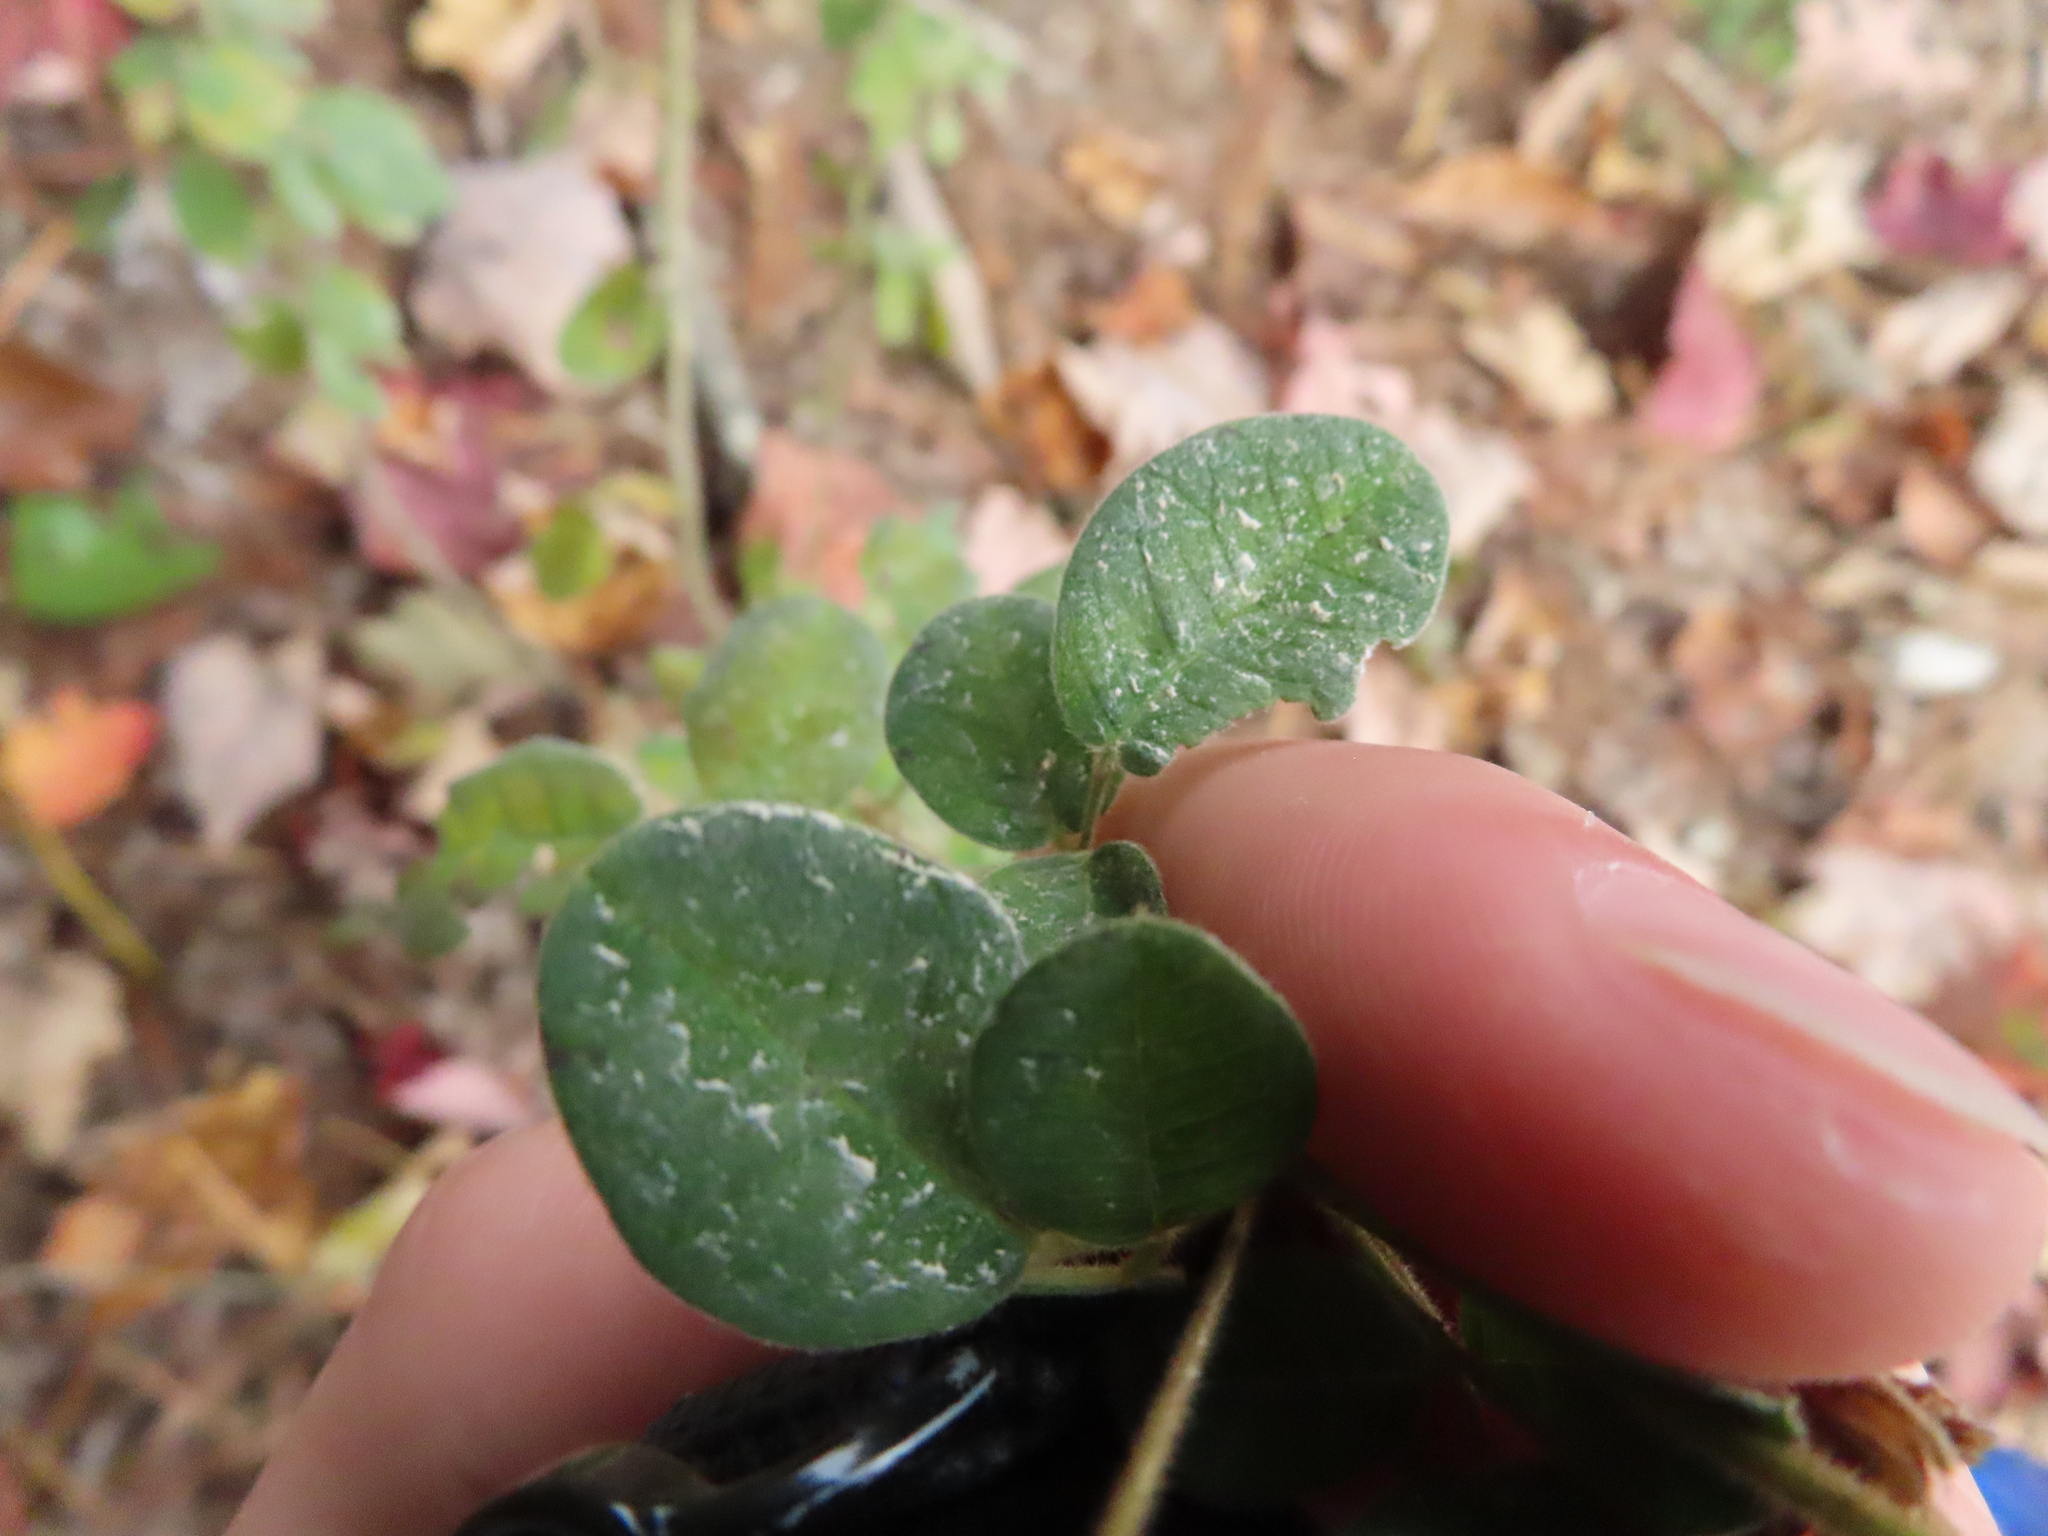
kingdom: Plantae
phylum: Tracheophyta
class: Magnoliopsida
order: Fabales
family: Fabaceae
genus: Lespedeza
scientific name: Lespedeza hirta
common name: Hairy lespedeza
